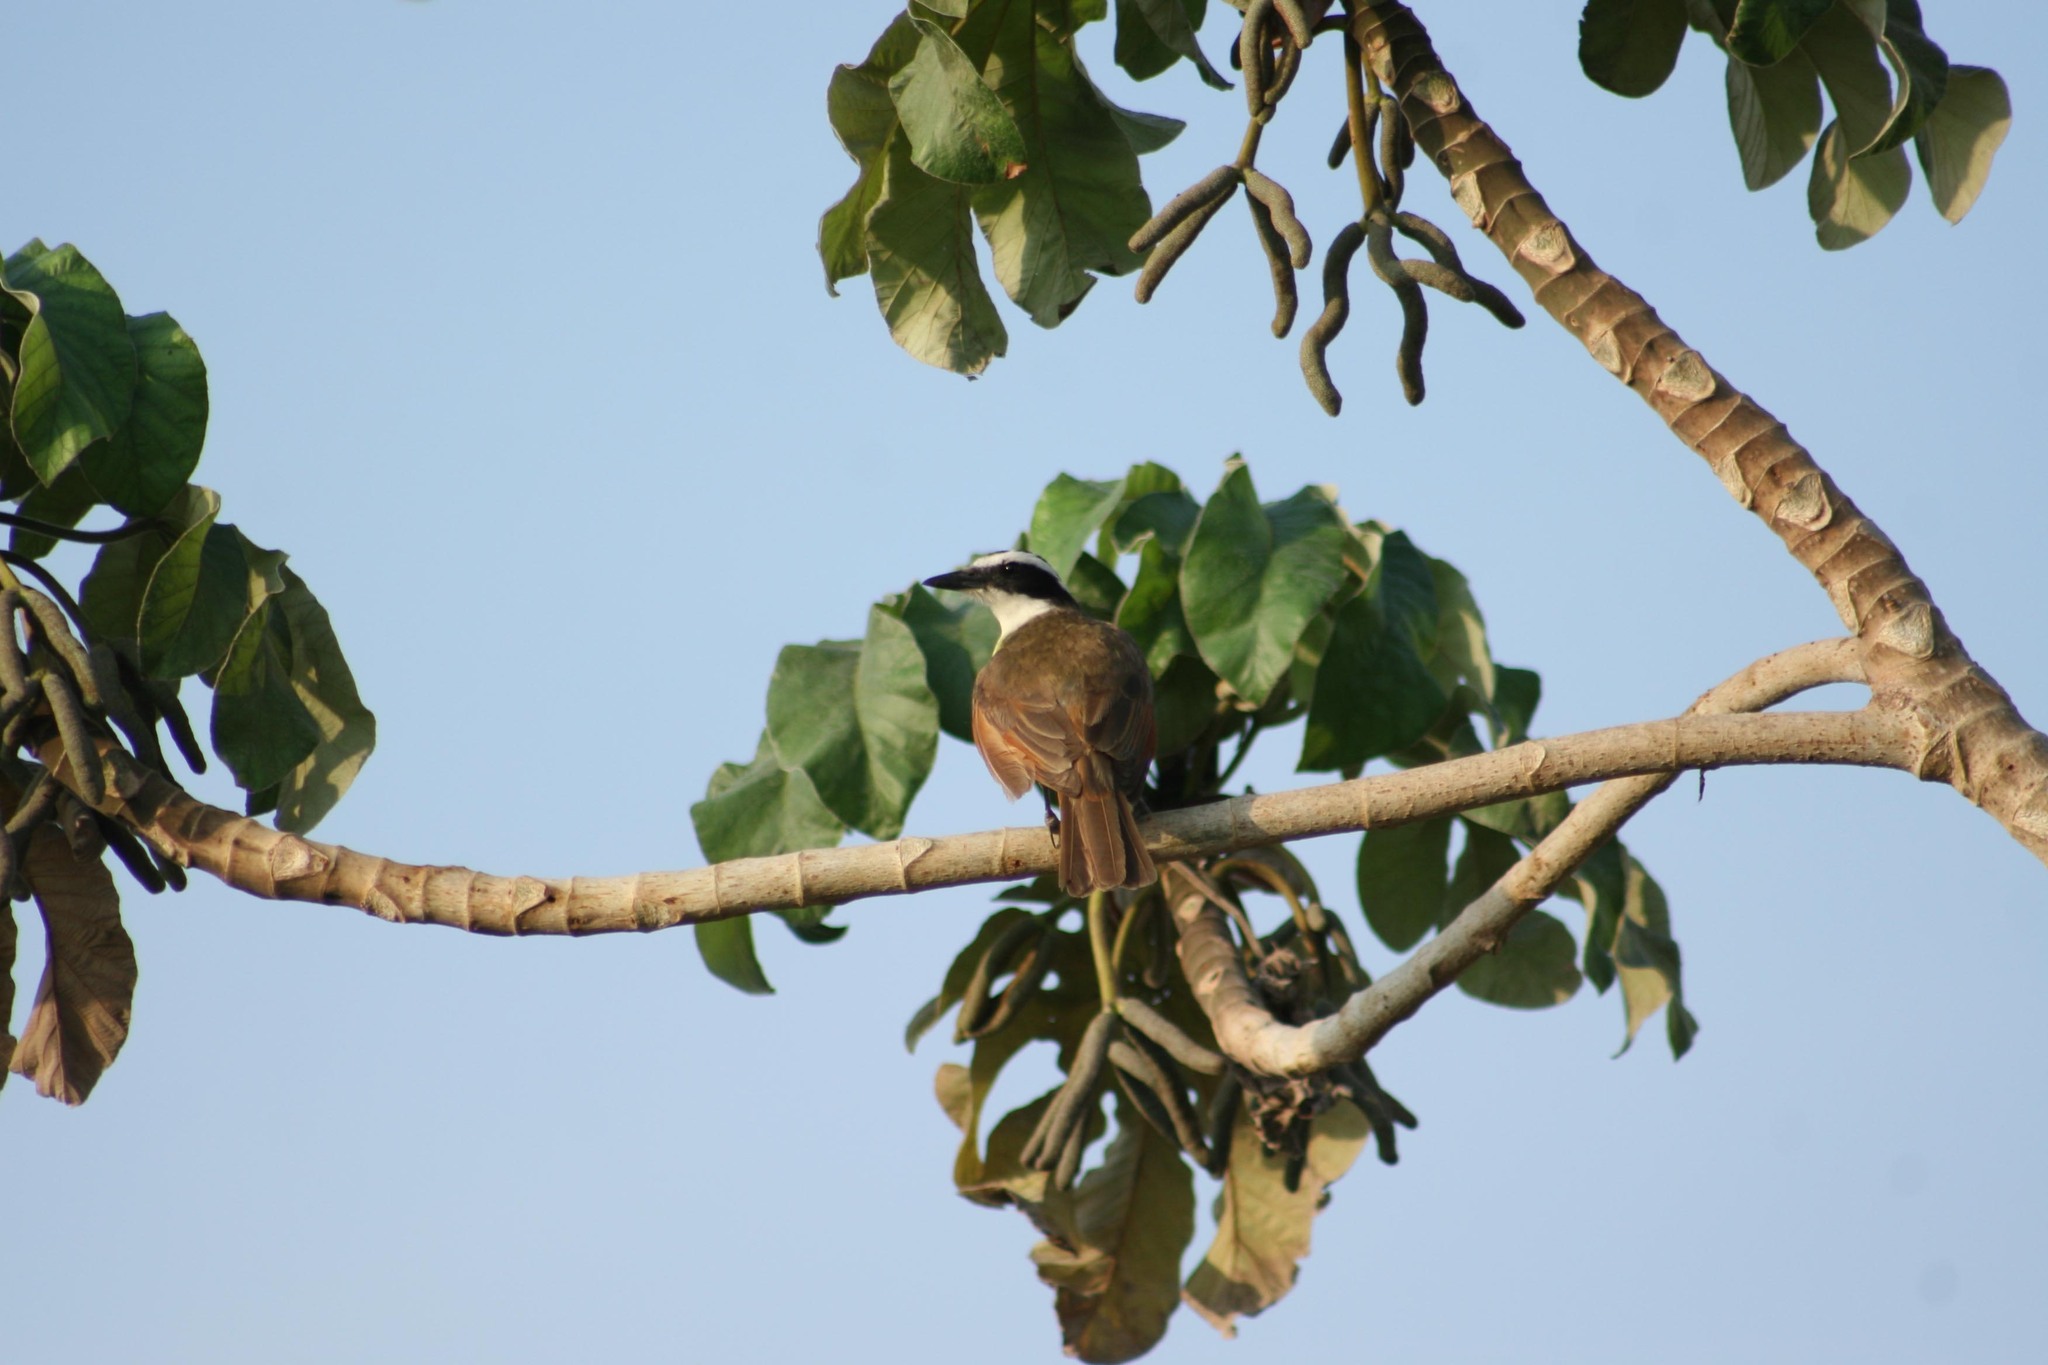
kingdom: Animalia
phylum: Chordata
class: Aves
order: Passeriformes
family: Tyrannidae
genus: Pitangus
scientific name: Pitangus sulphuratus
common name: Great kiskadee
